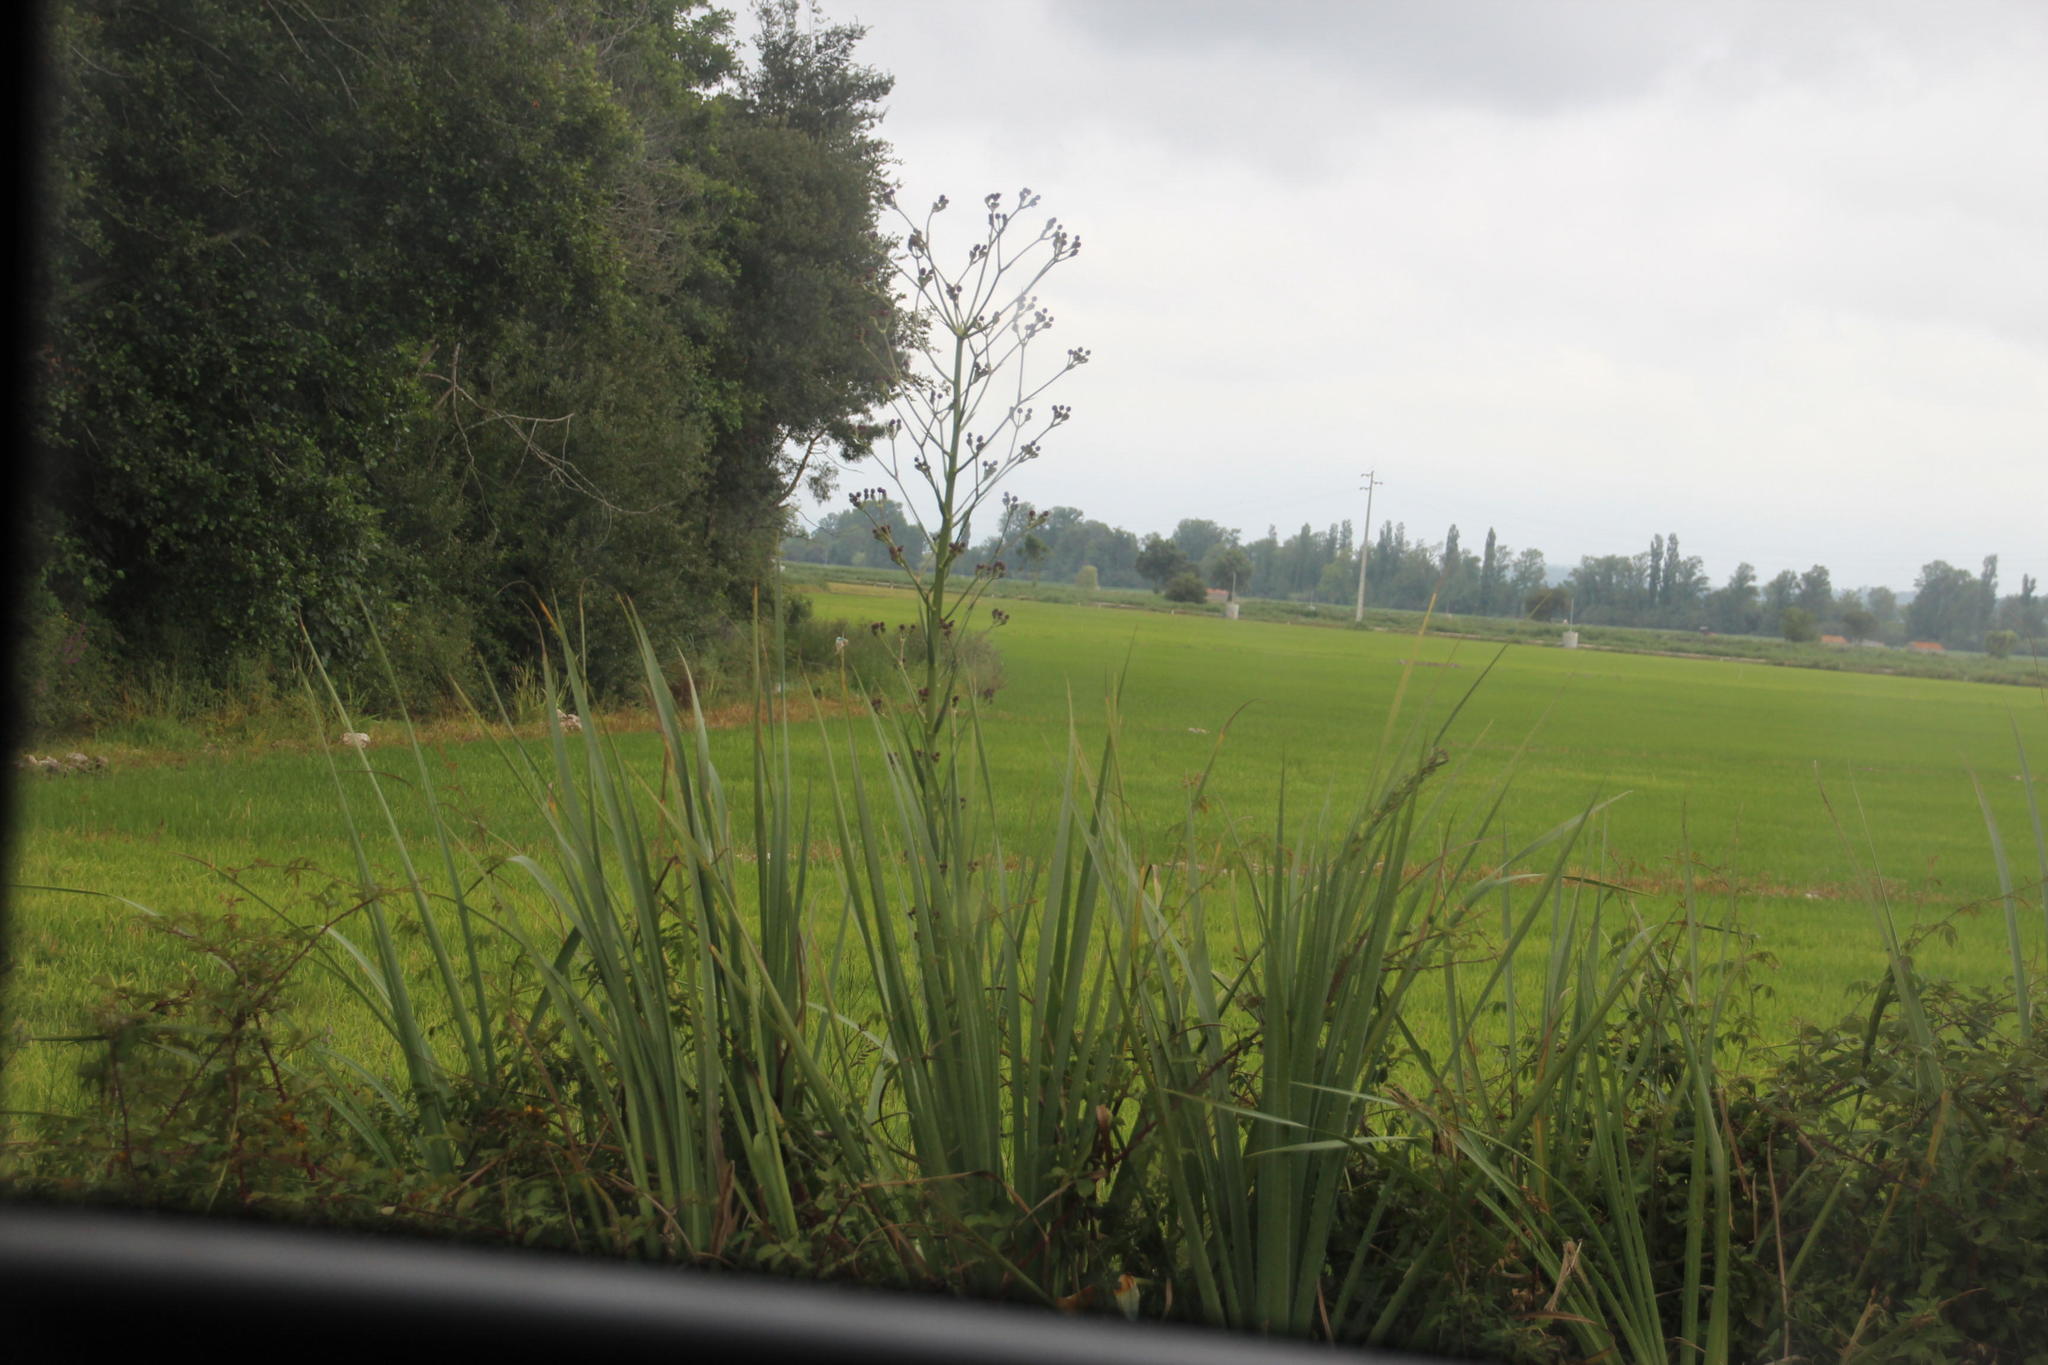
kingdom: Plantae
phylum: Tracheophyta
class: Magnoliopsida
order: Apiales
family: Apiaceae
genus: Eryngium
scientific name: Eryngium pandanifolium
